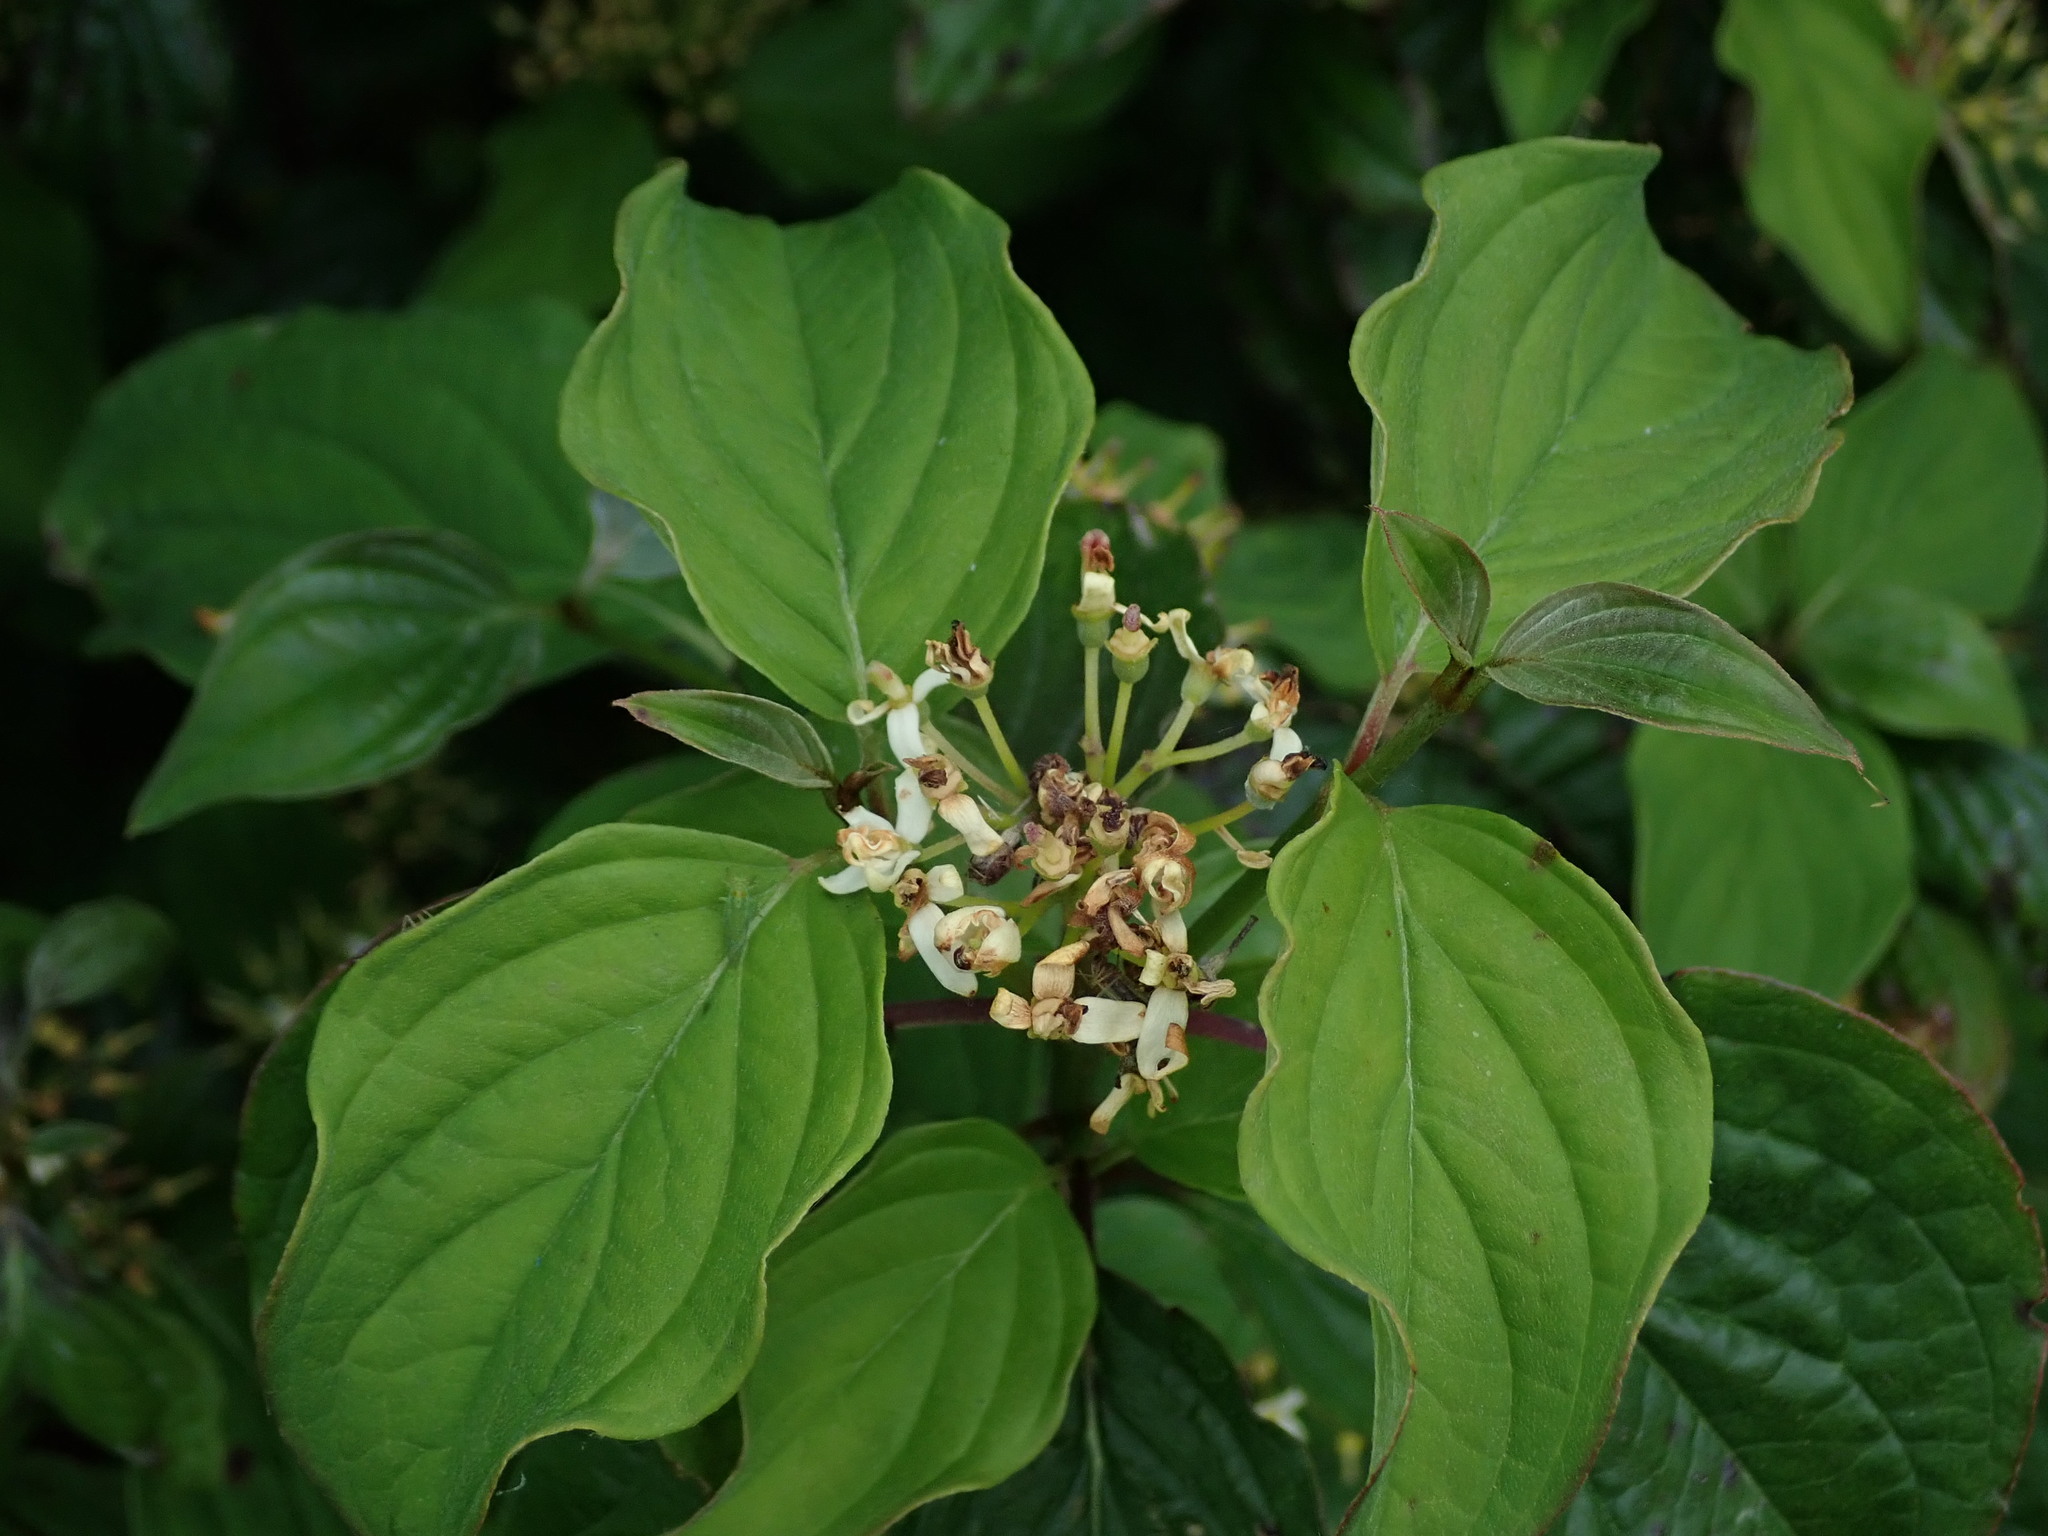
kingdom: Plantae
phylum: Tracheophyta
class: Magnoliopsida
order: Cornales
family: Cornaceae
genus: Cornus
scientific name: Cornus sanguinea
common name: Dogwood
